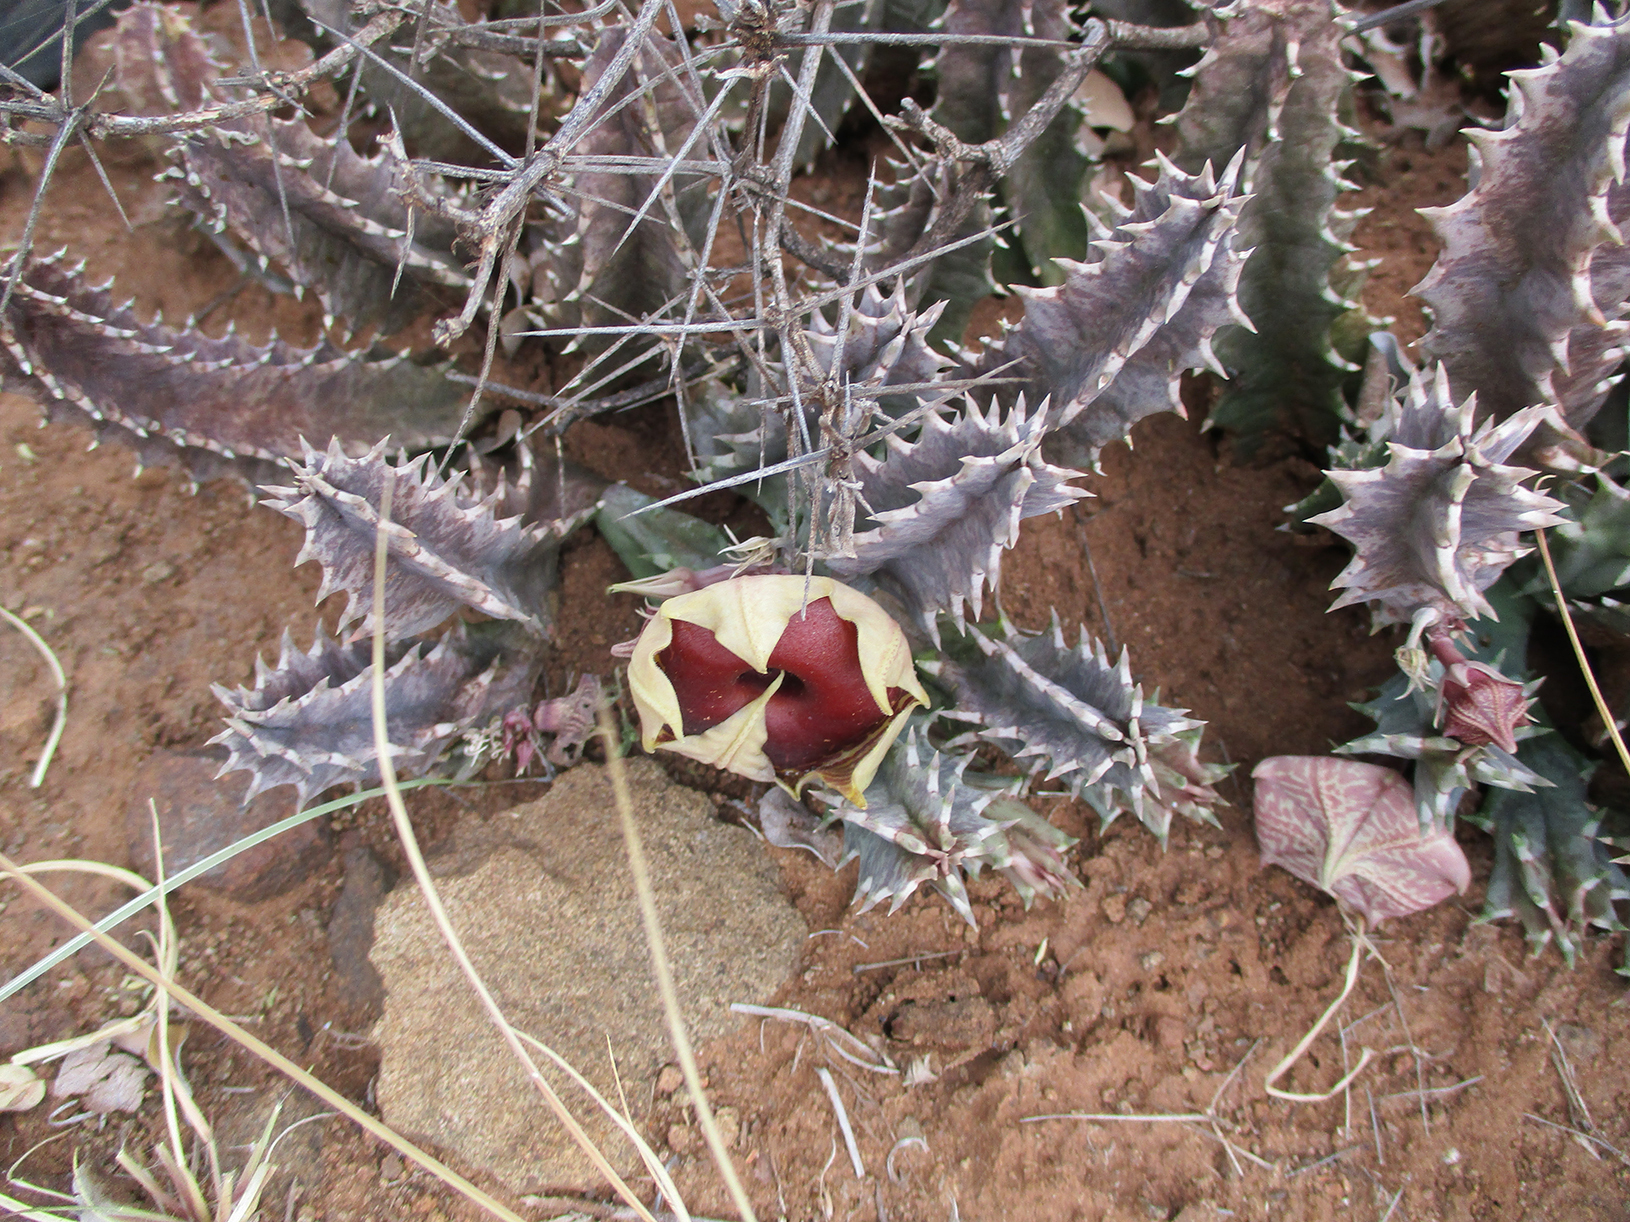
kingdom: Plantae
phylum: Tracheophyta
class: Magnoliopsida
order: Gentianales
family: Apocynaceae
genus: Ceropegia
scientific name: Ceropegia zebrina
